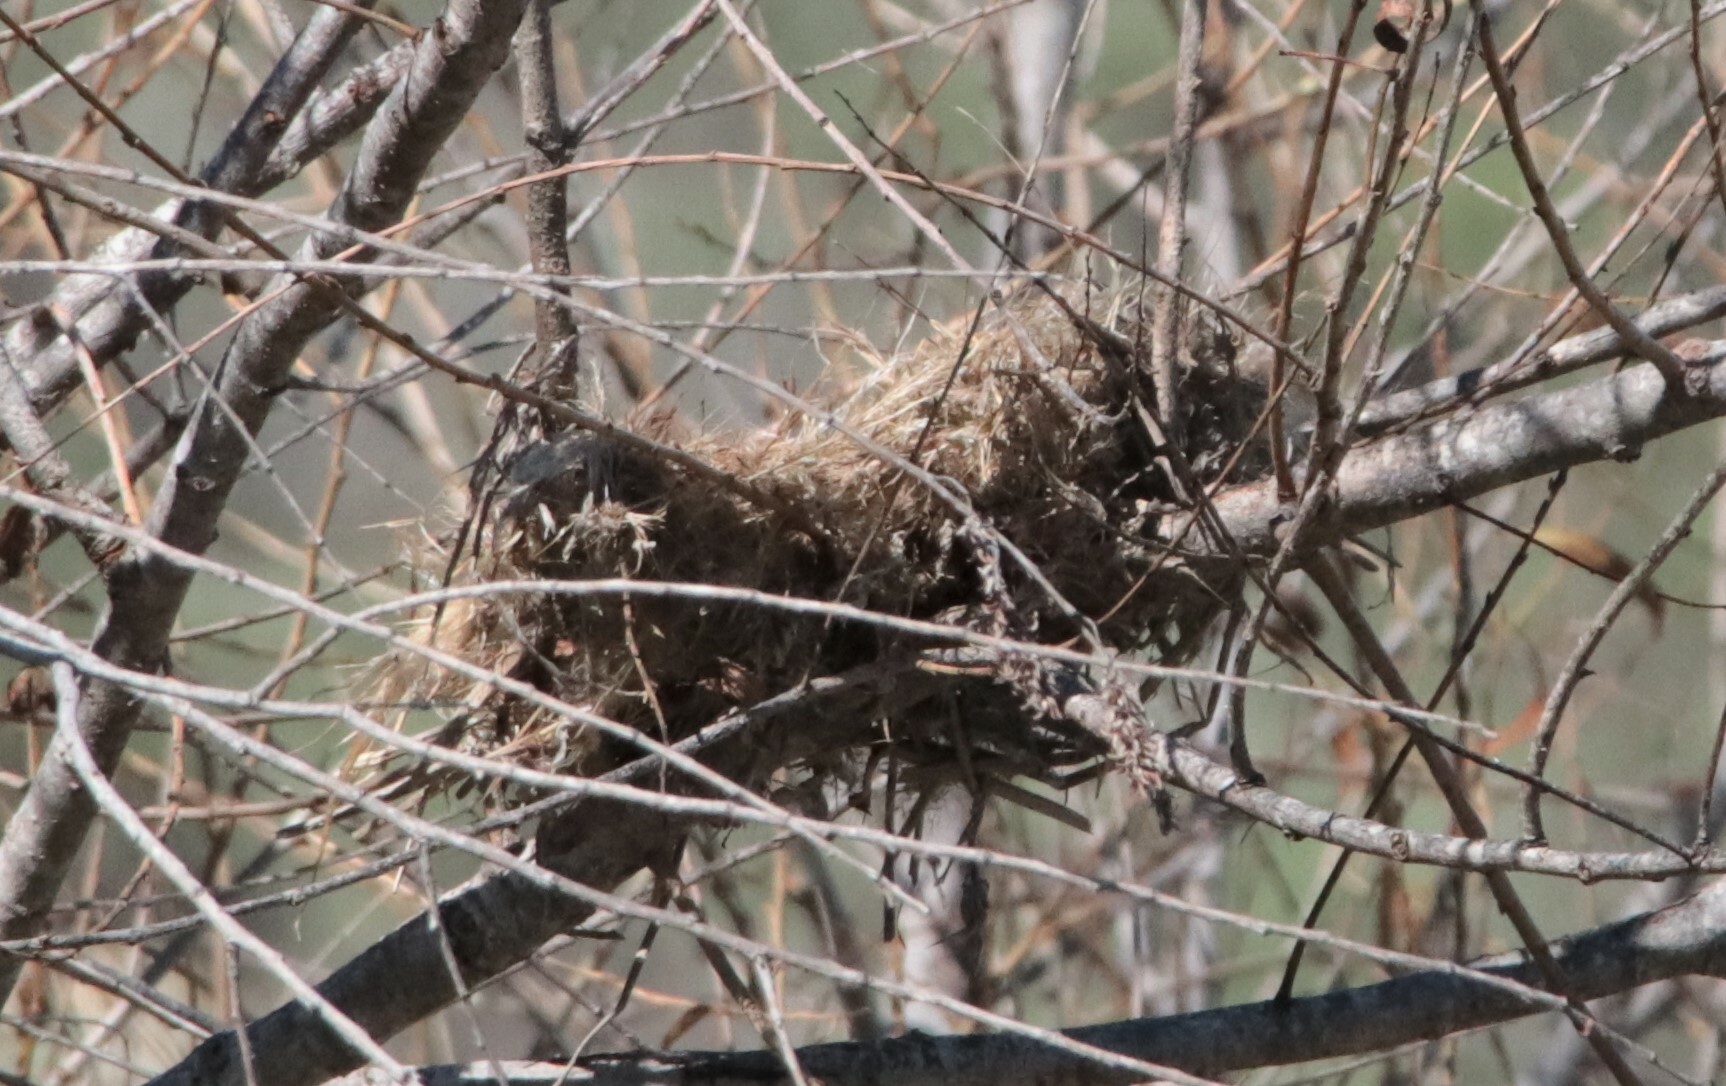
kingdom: Animalia
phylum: Chordata
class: Aves
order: Passeriformes
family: Estrildidae
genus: Lonchura
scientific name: Lonchura punctulata
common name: Scaly-breasted munia
